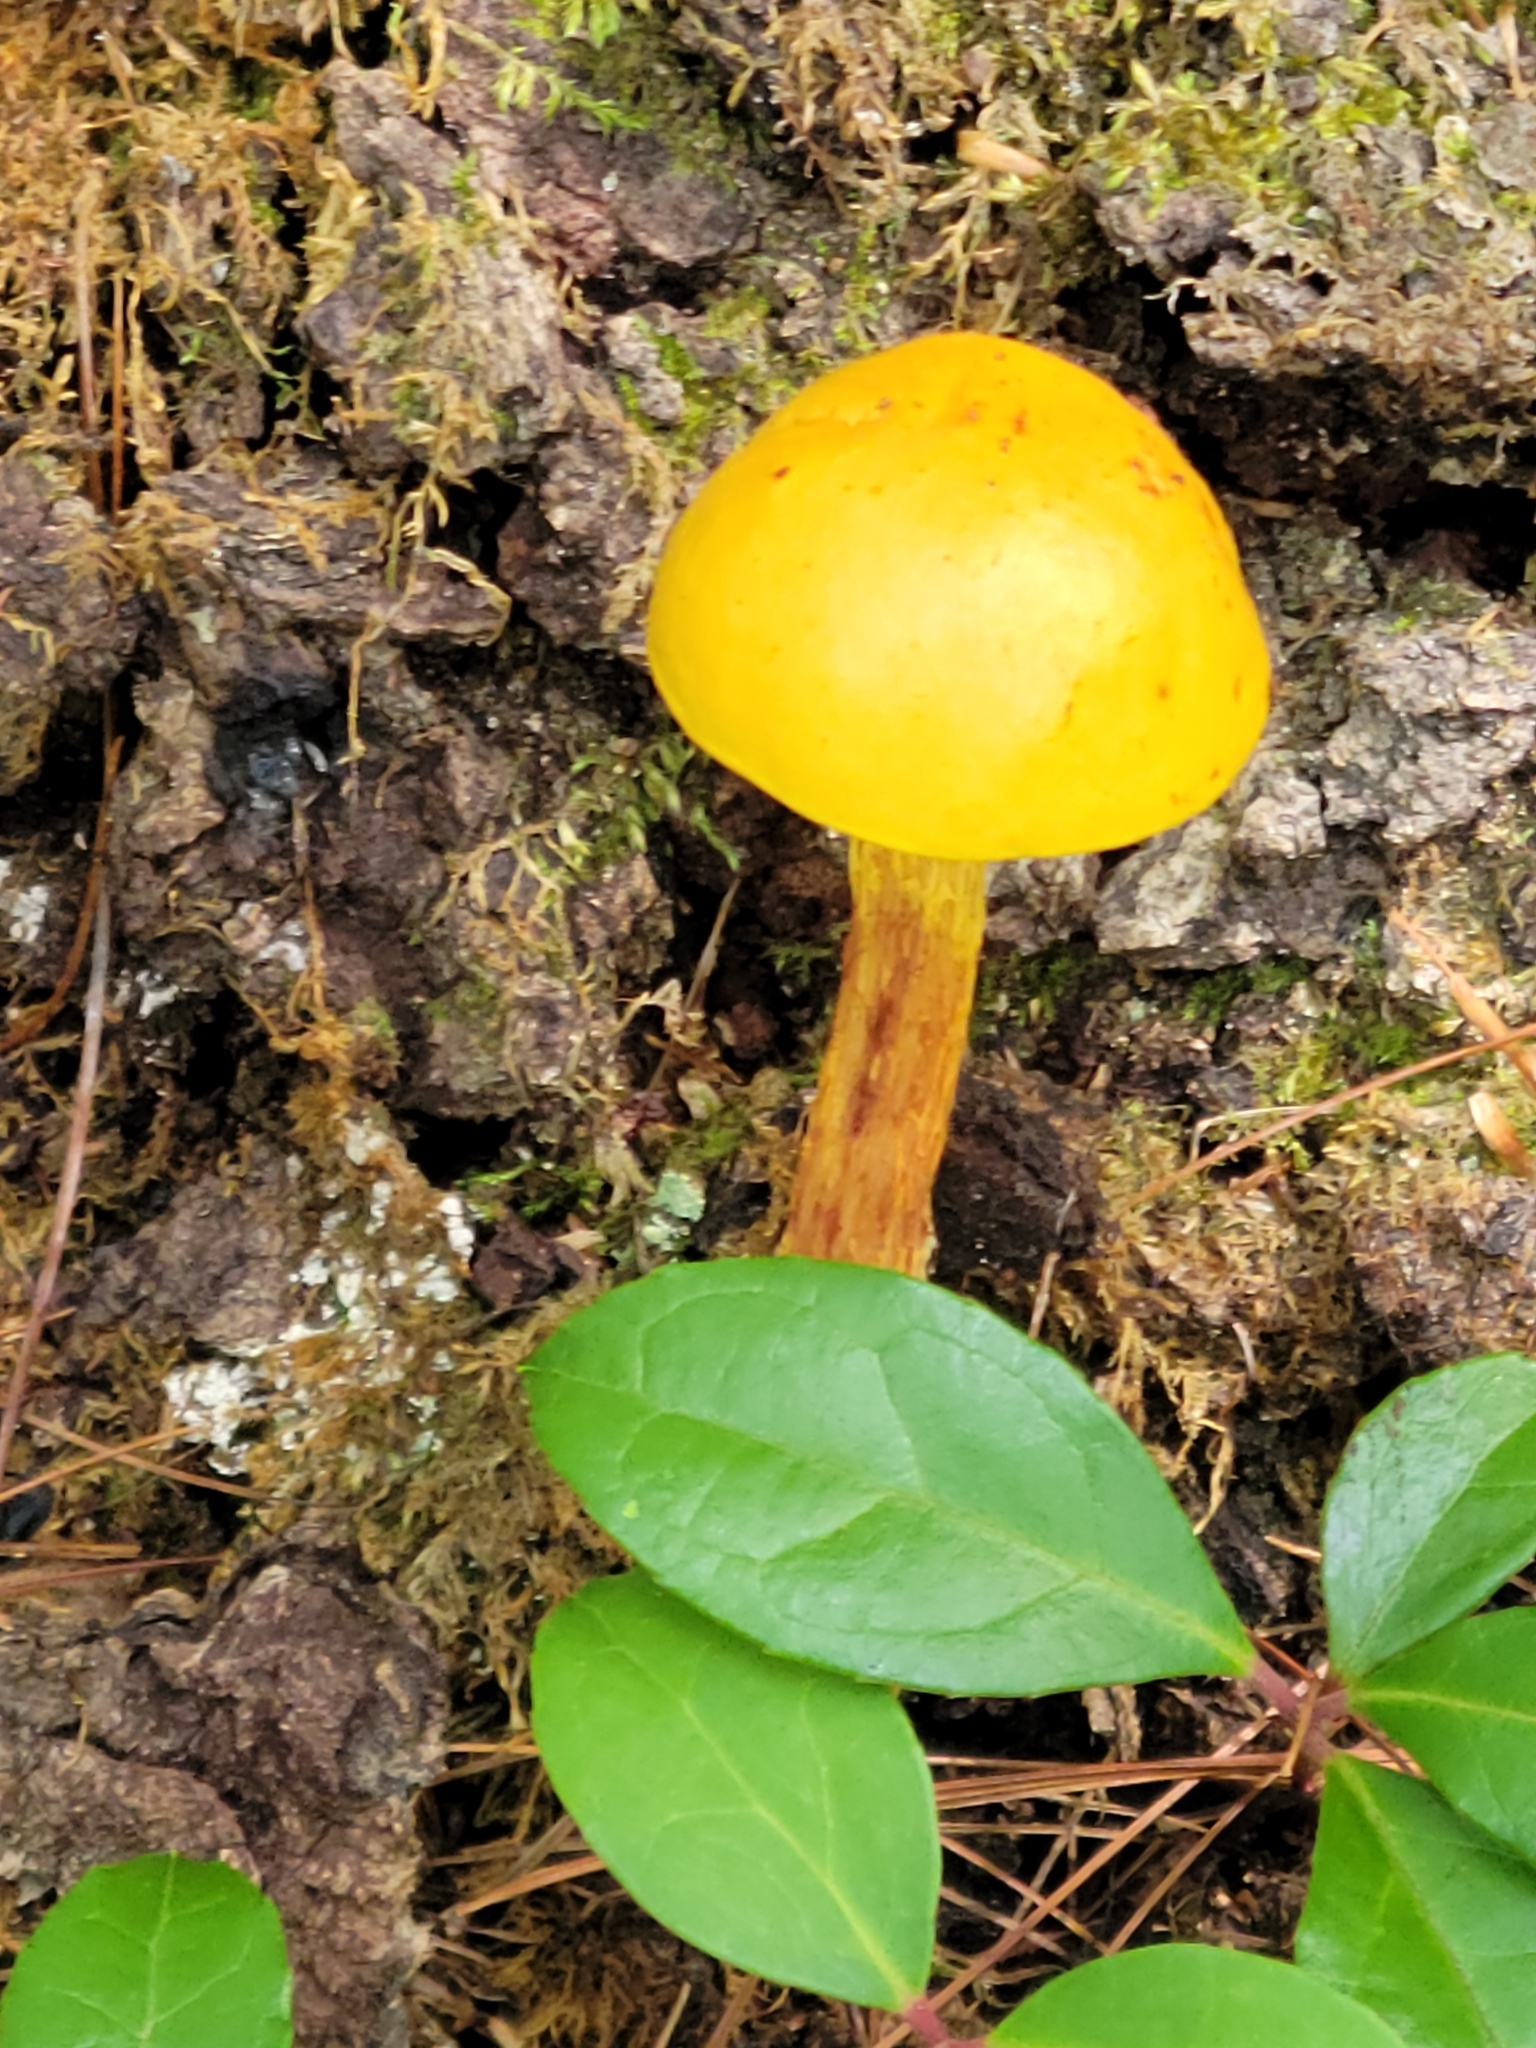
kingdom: Fungi
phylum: Basidiomycota
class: Agaricomycetes
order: Boletales
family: Boletaceae
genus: Aureoboletus
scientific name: Aureoboletus betula
